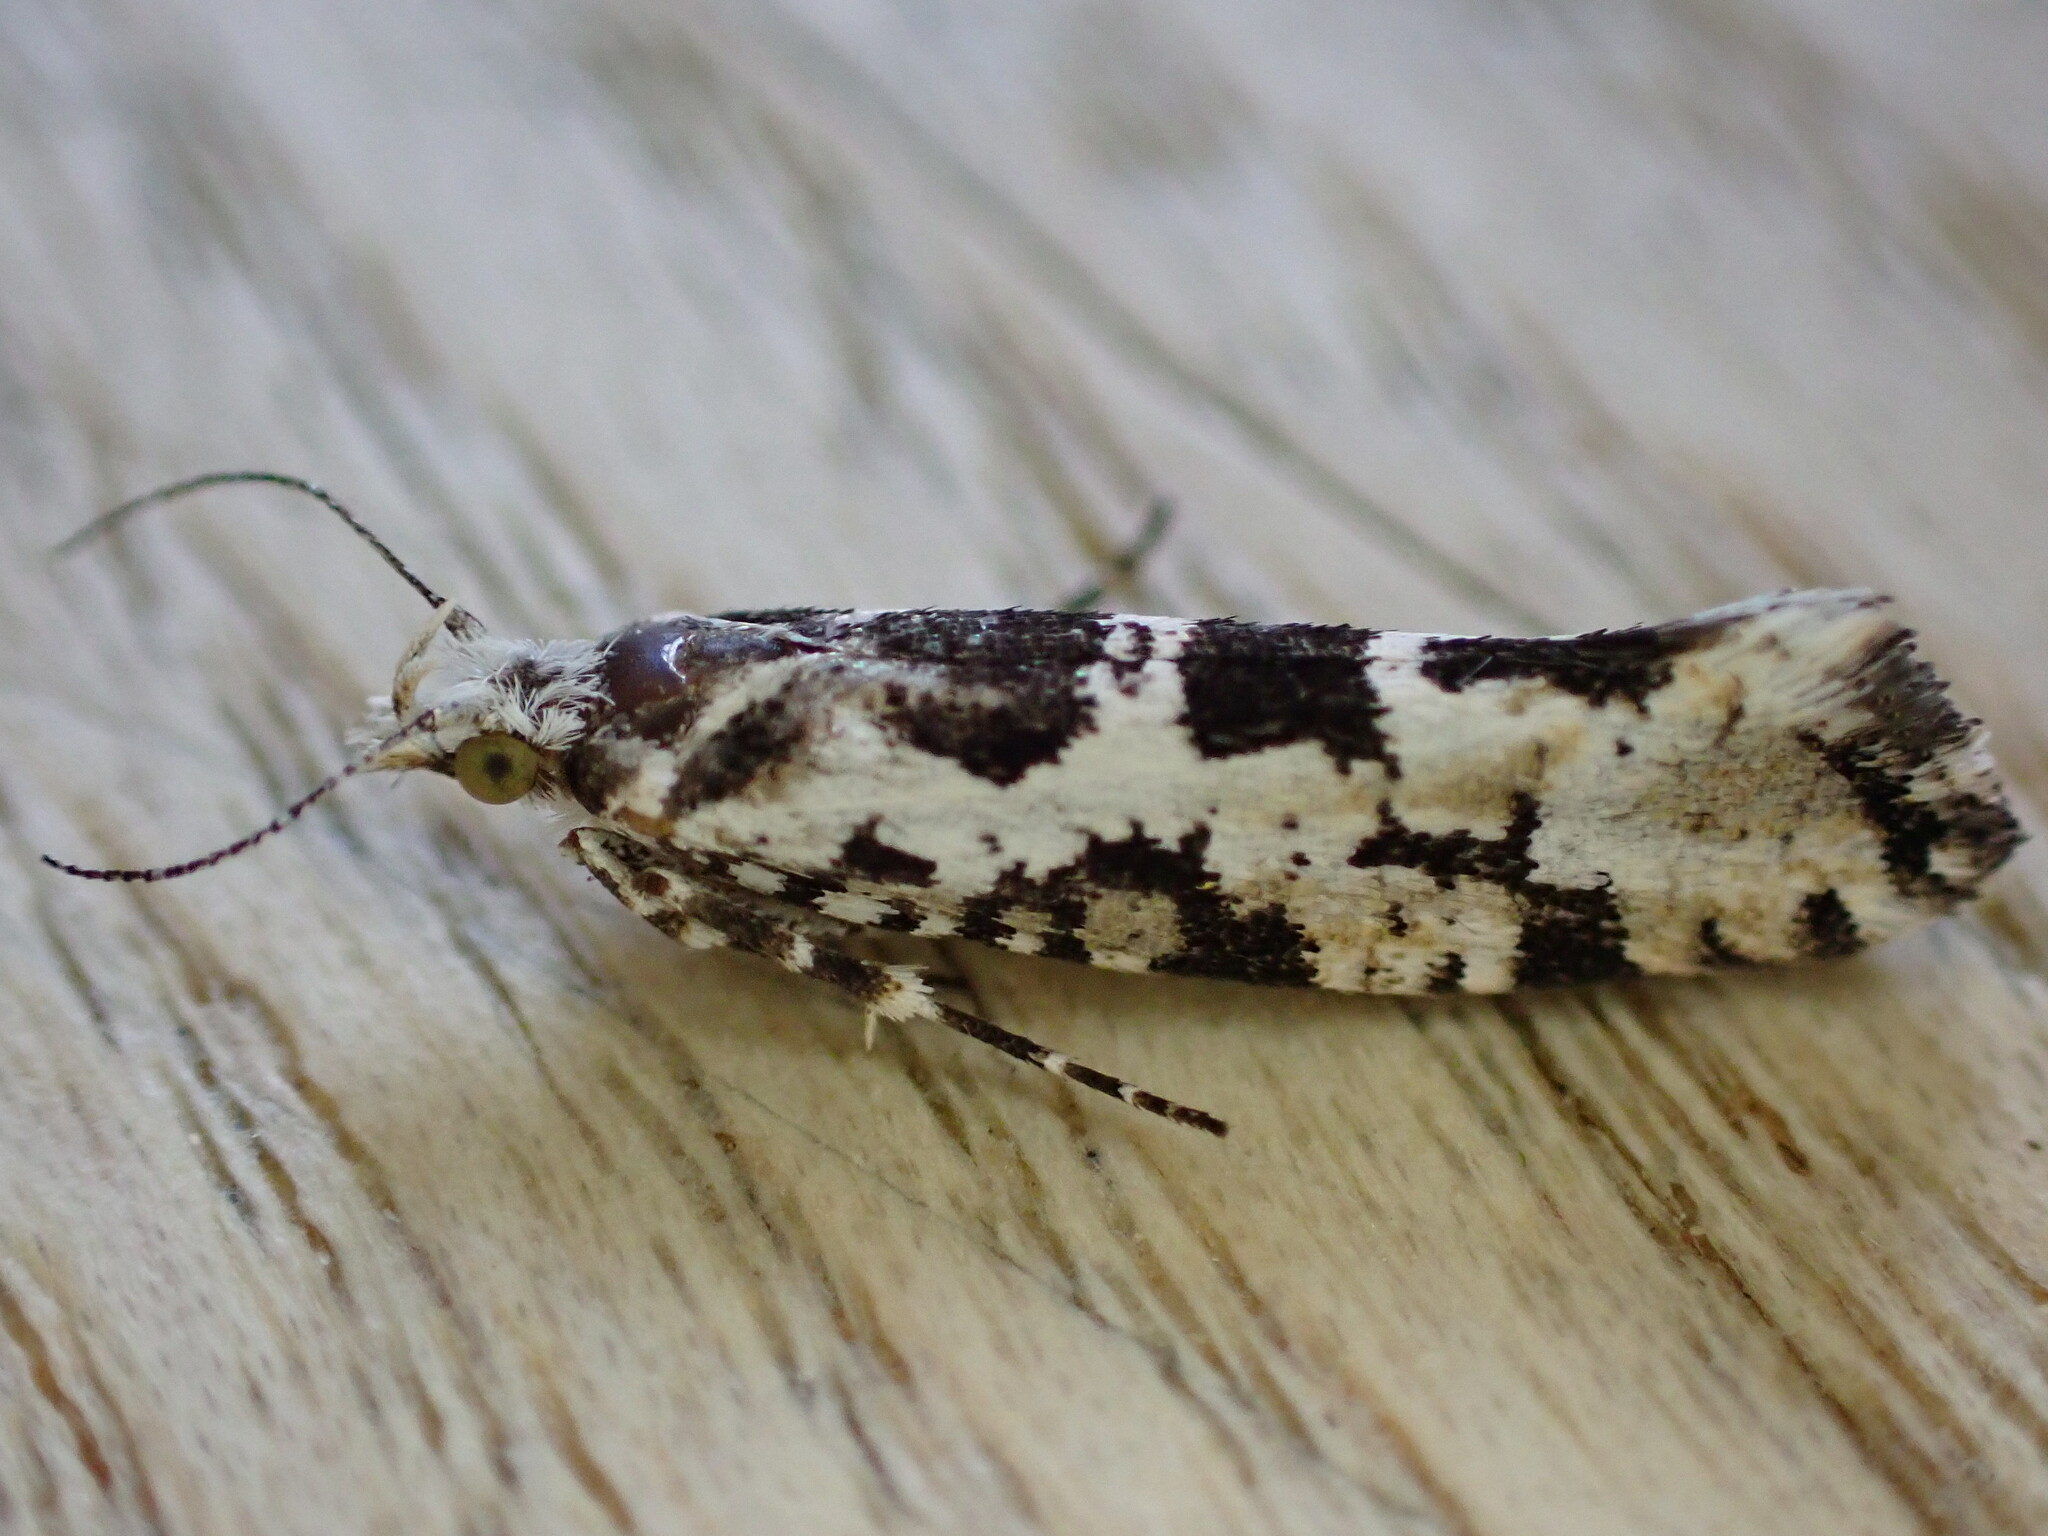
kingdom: Animalia
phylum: Arthropoda
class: Insecta
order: Lepidoptera
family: Plutellidae
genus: Ypsolophus
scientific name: Ypsolophus sequella
